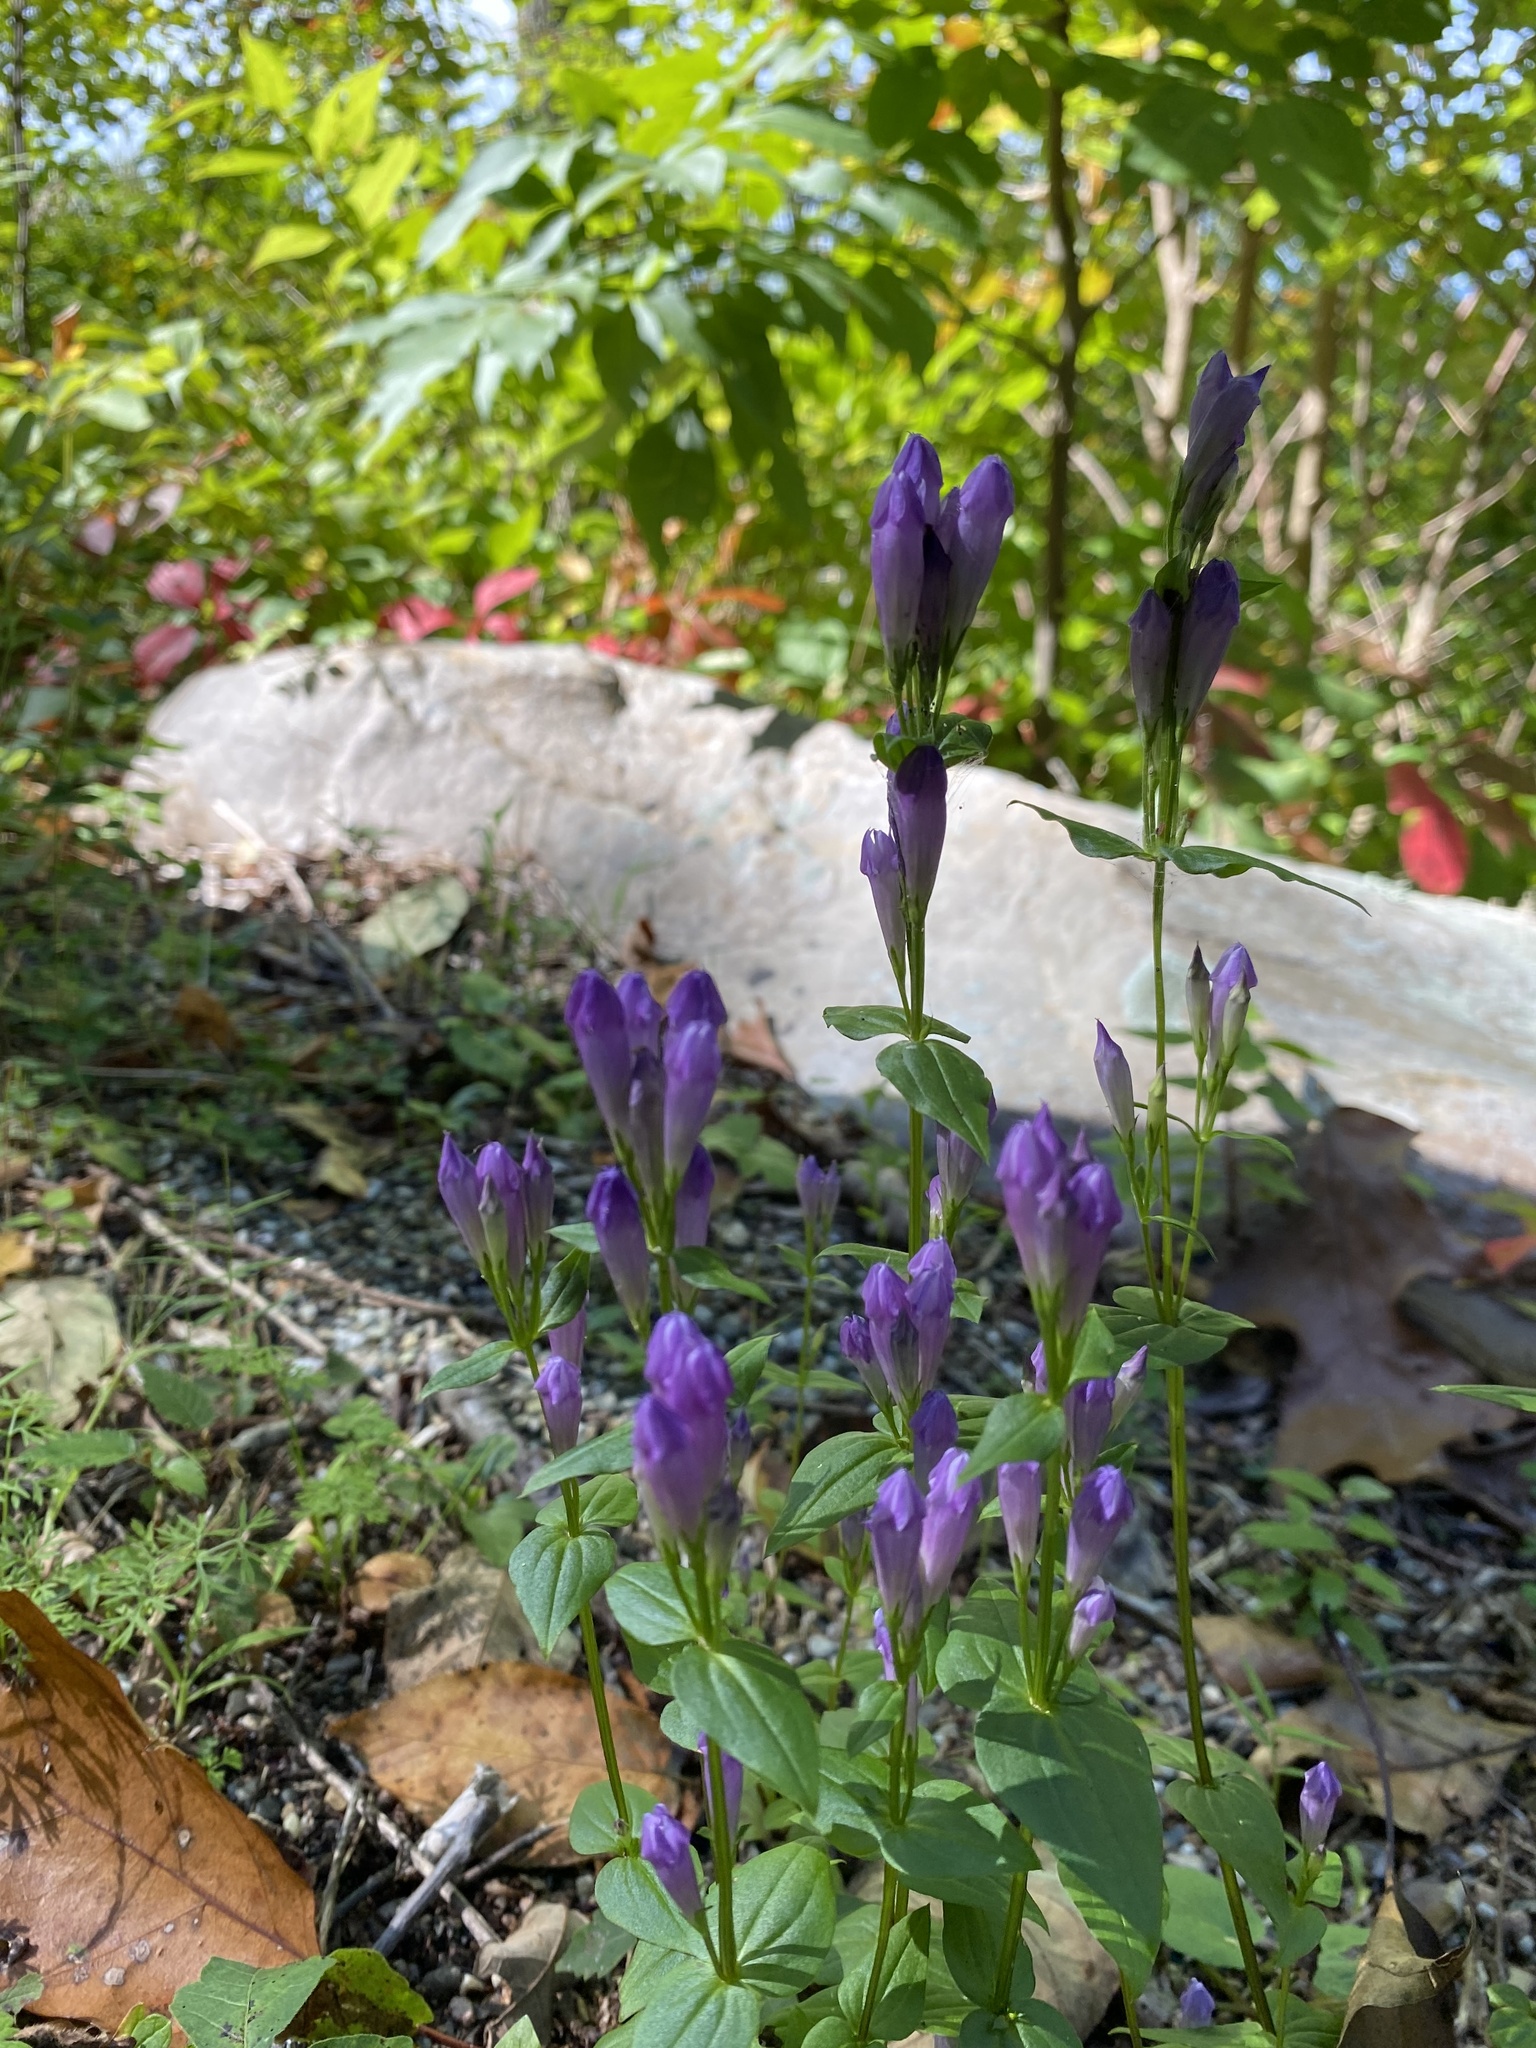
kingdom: Plantae
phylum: Tracheophyta
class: Magnoliopsida
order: Gentianales
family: Gentianaceae
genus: Gentianella
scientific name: Gentianella quinquefolia
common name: Agueweed
